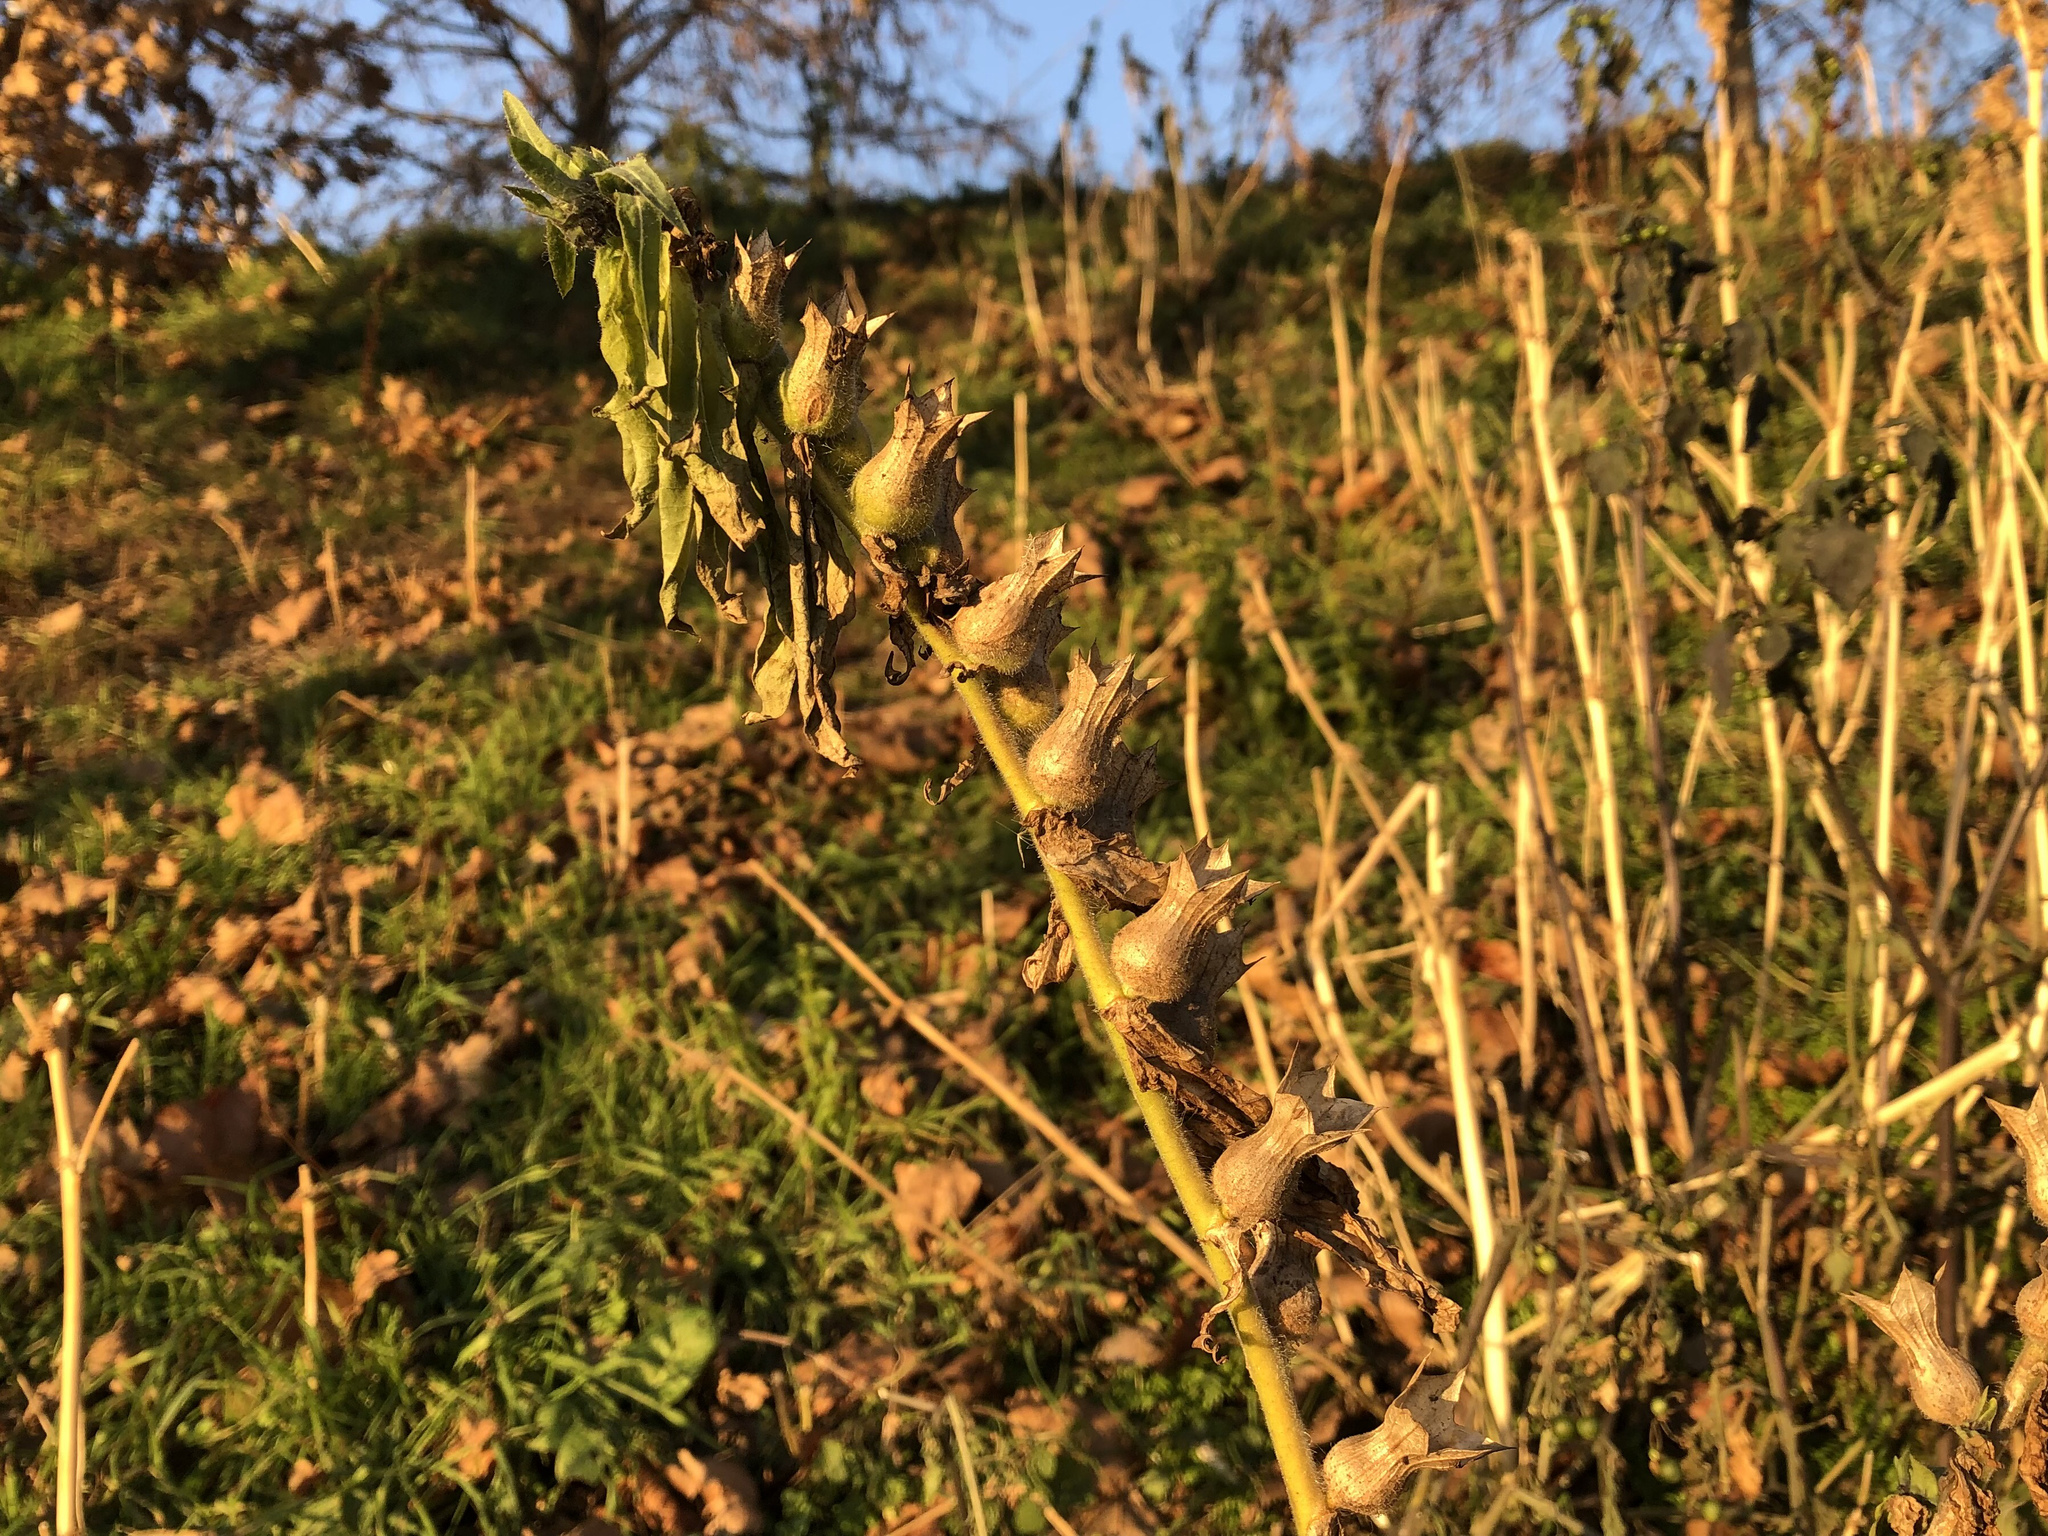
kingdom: Plantae
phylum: Tracheophyta
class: Magnoliopsida
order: Solanales
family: Solanaceae
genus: Hyoscyamus
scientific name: Hyoscyamus niger
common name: Henbane
